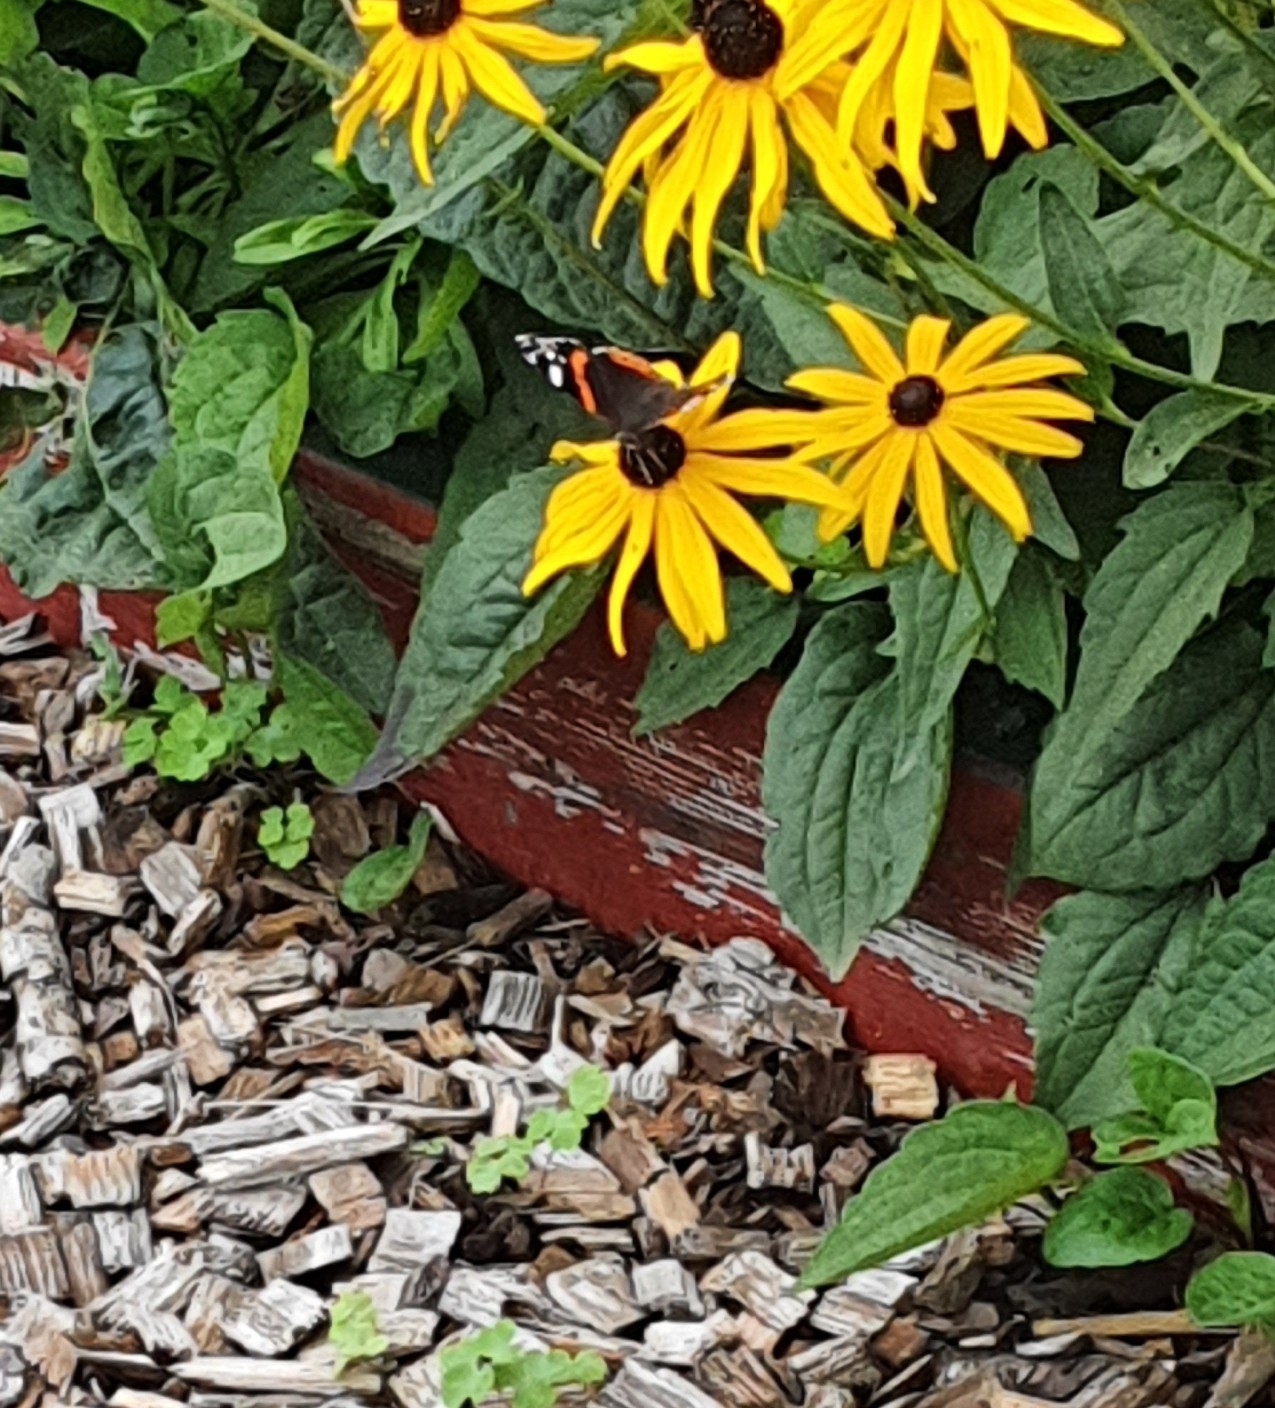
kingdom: Animalia
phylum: Arthropoda
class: Insecta
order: Lepidoptera
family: Nymphalidae
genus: Vanessa
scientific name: Vanessa atalanta
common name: Red admiral
